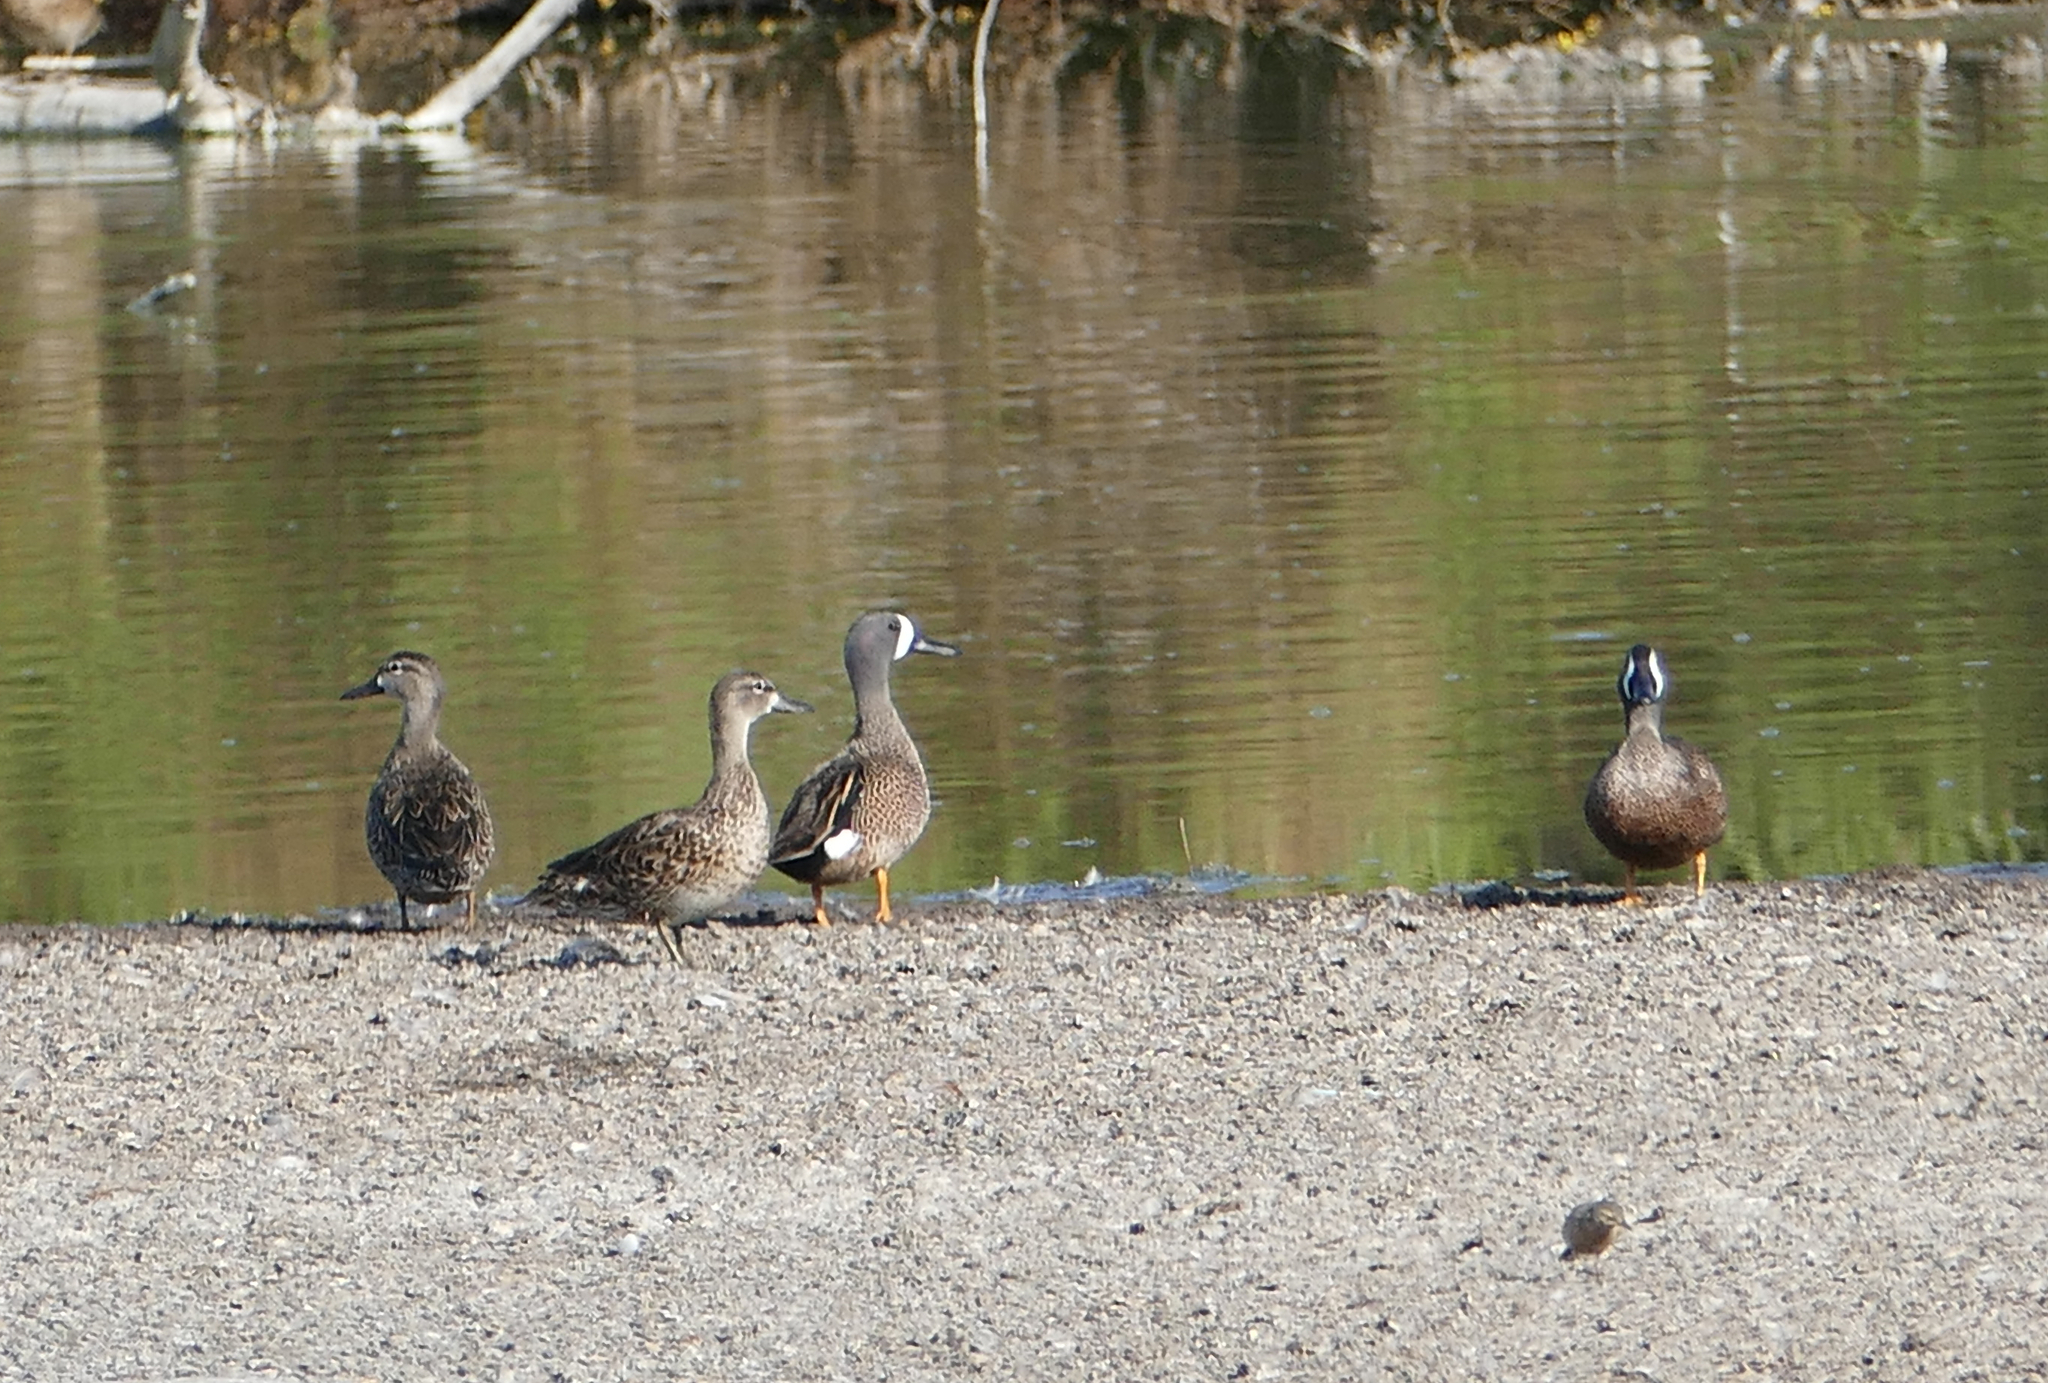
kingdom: Animalia
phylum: Chordata
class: Aves
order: Anseriformes
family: Anatidae
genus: Spatula
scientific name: Spatula discors
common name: Blue-winged teal
